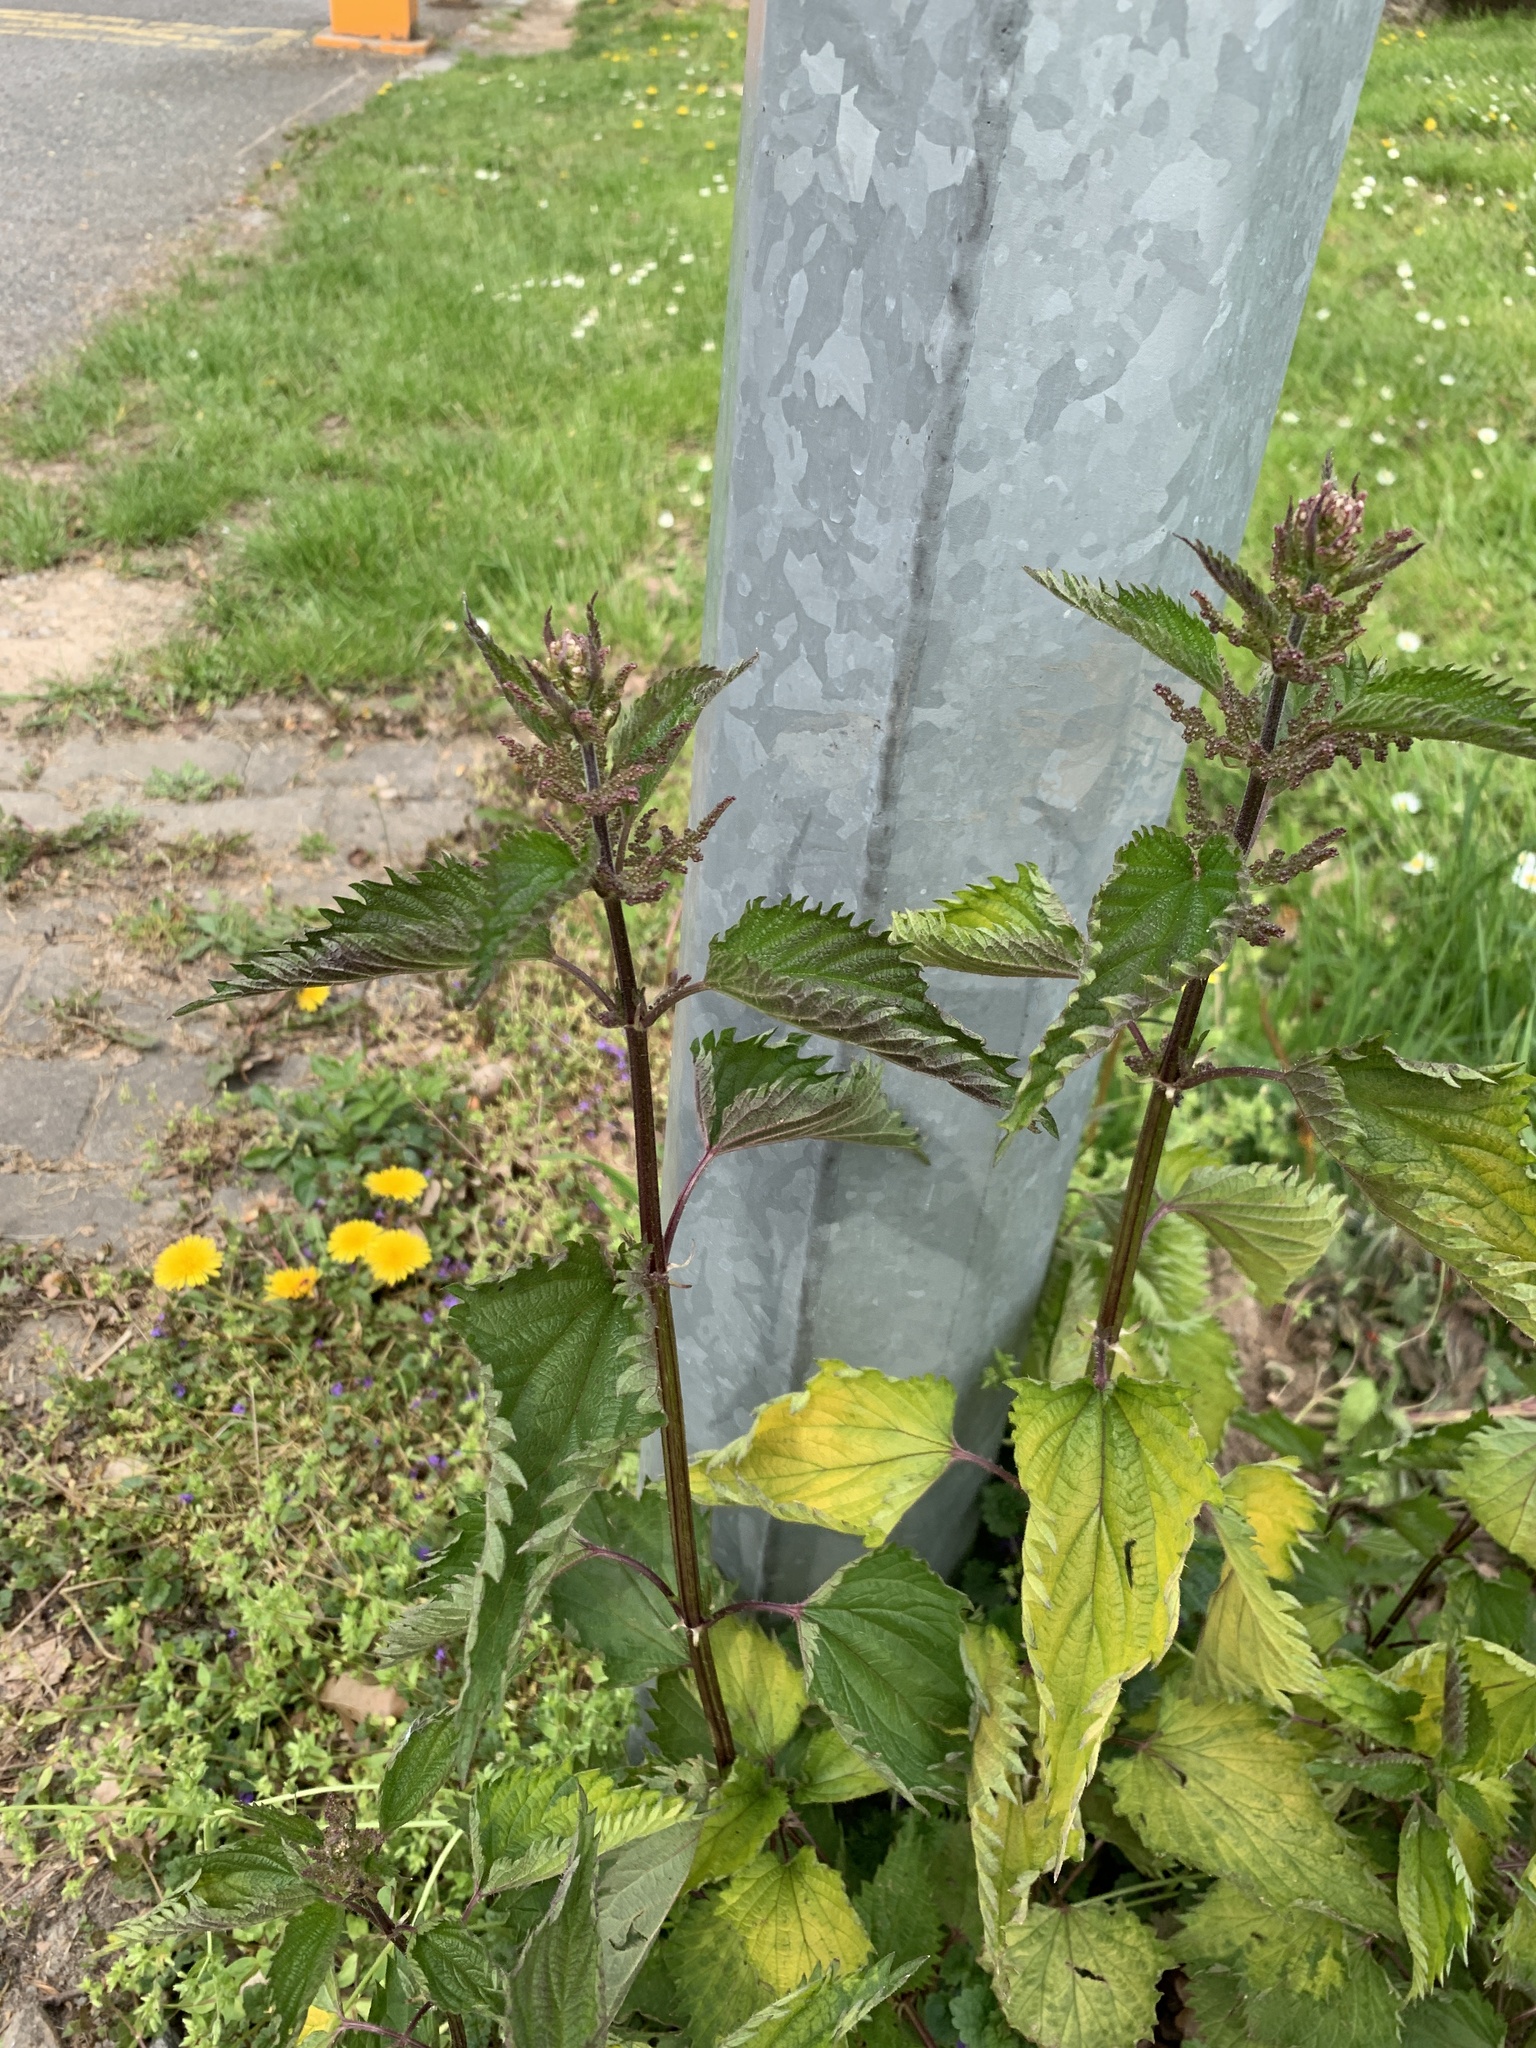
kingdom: Plantae
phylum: Tracheophyta
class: Magnoliopsida
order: Rosales
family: Urticaceae
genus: Urtica
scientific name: Urtica dioica
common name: Common nettle
